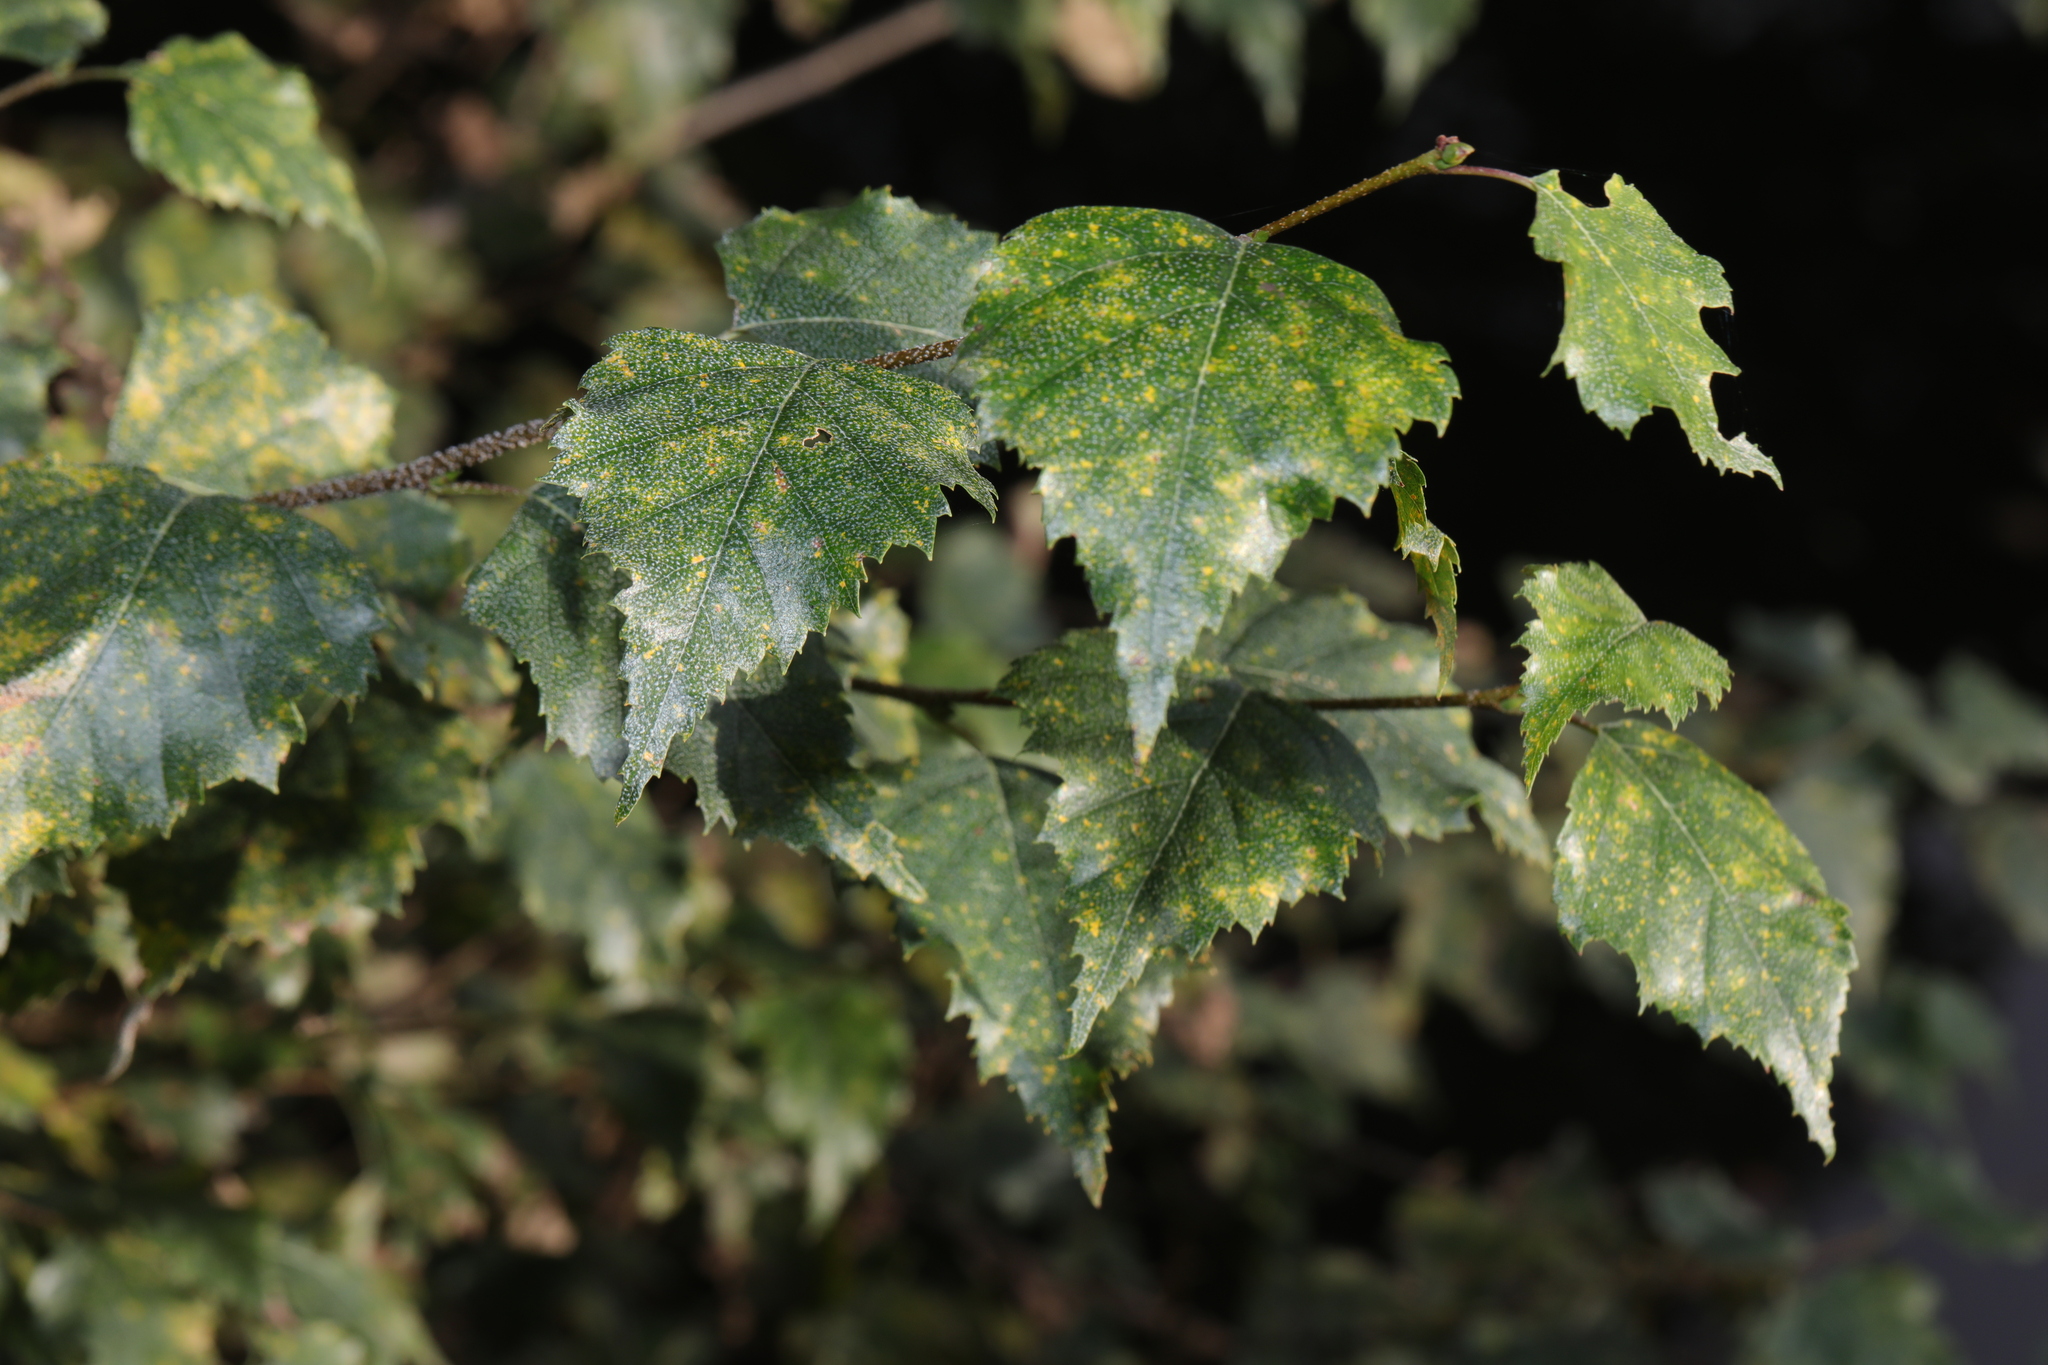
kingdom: Plantae
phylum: Tracheophyta
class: Magnoliopsida
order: Fagales
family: Betulaceae
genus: Betula
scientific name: Betula pendula
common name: Silver birch
